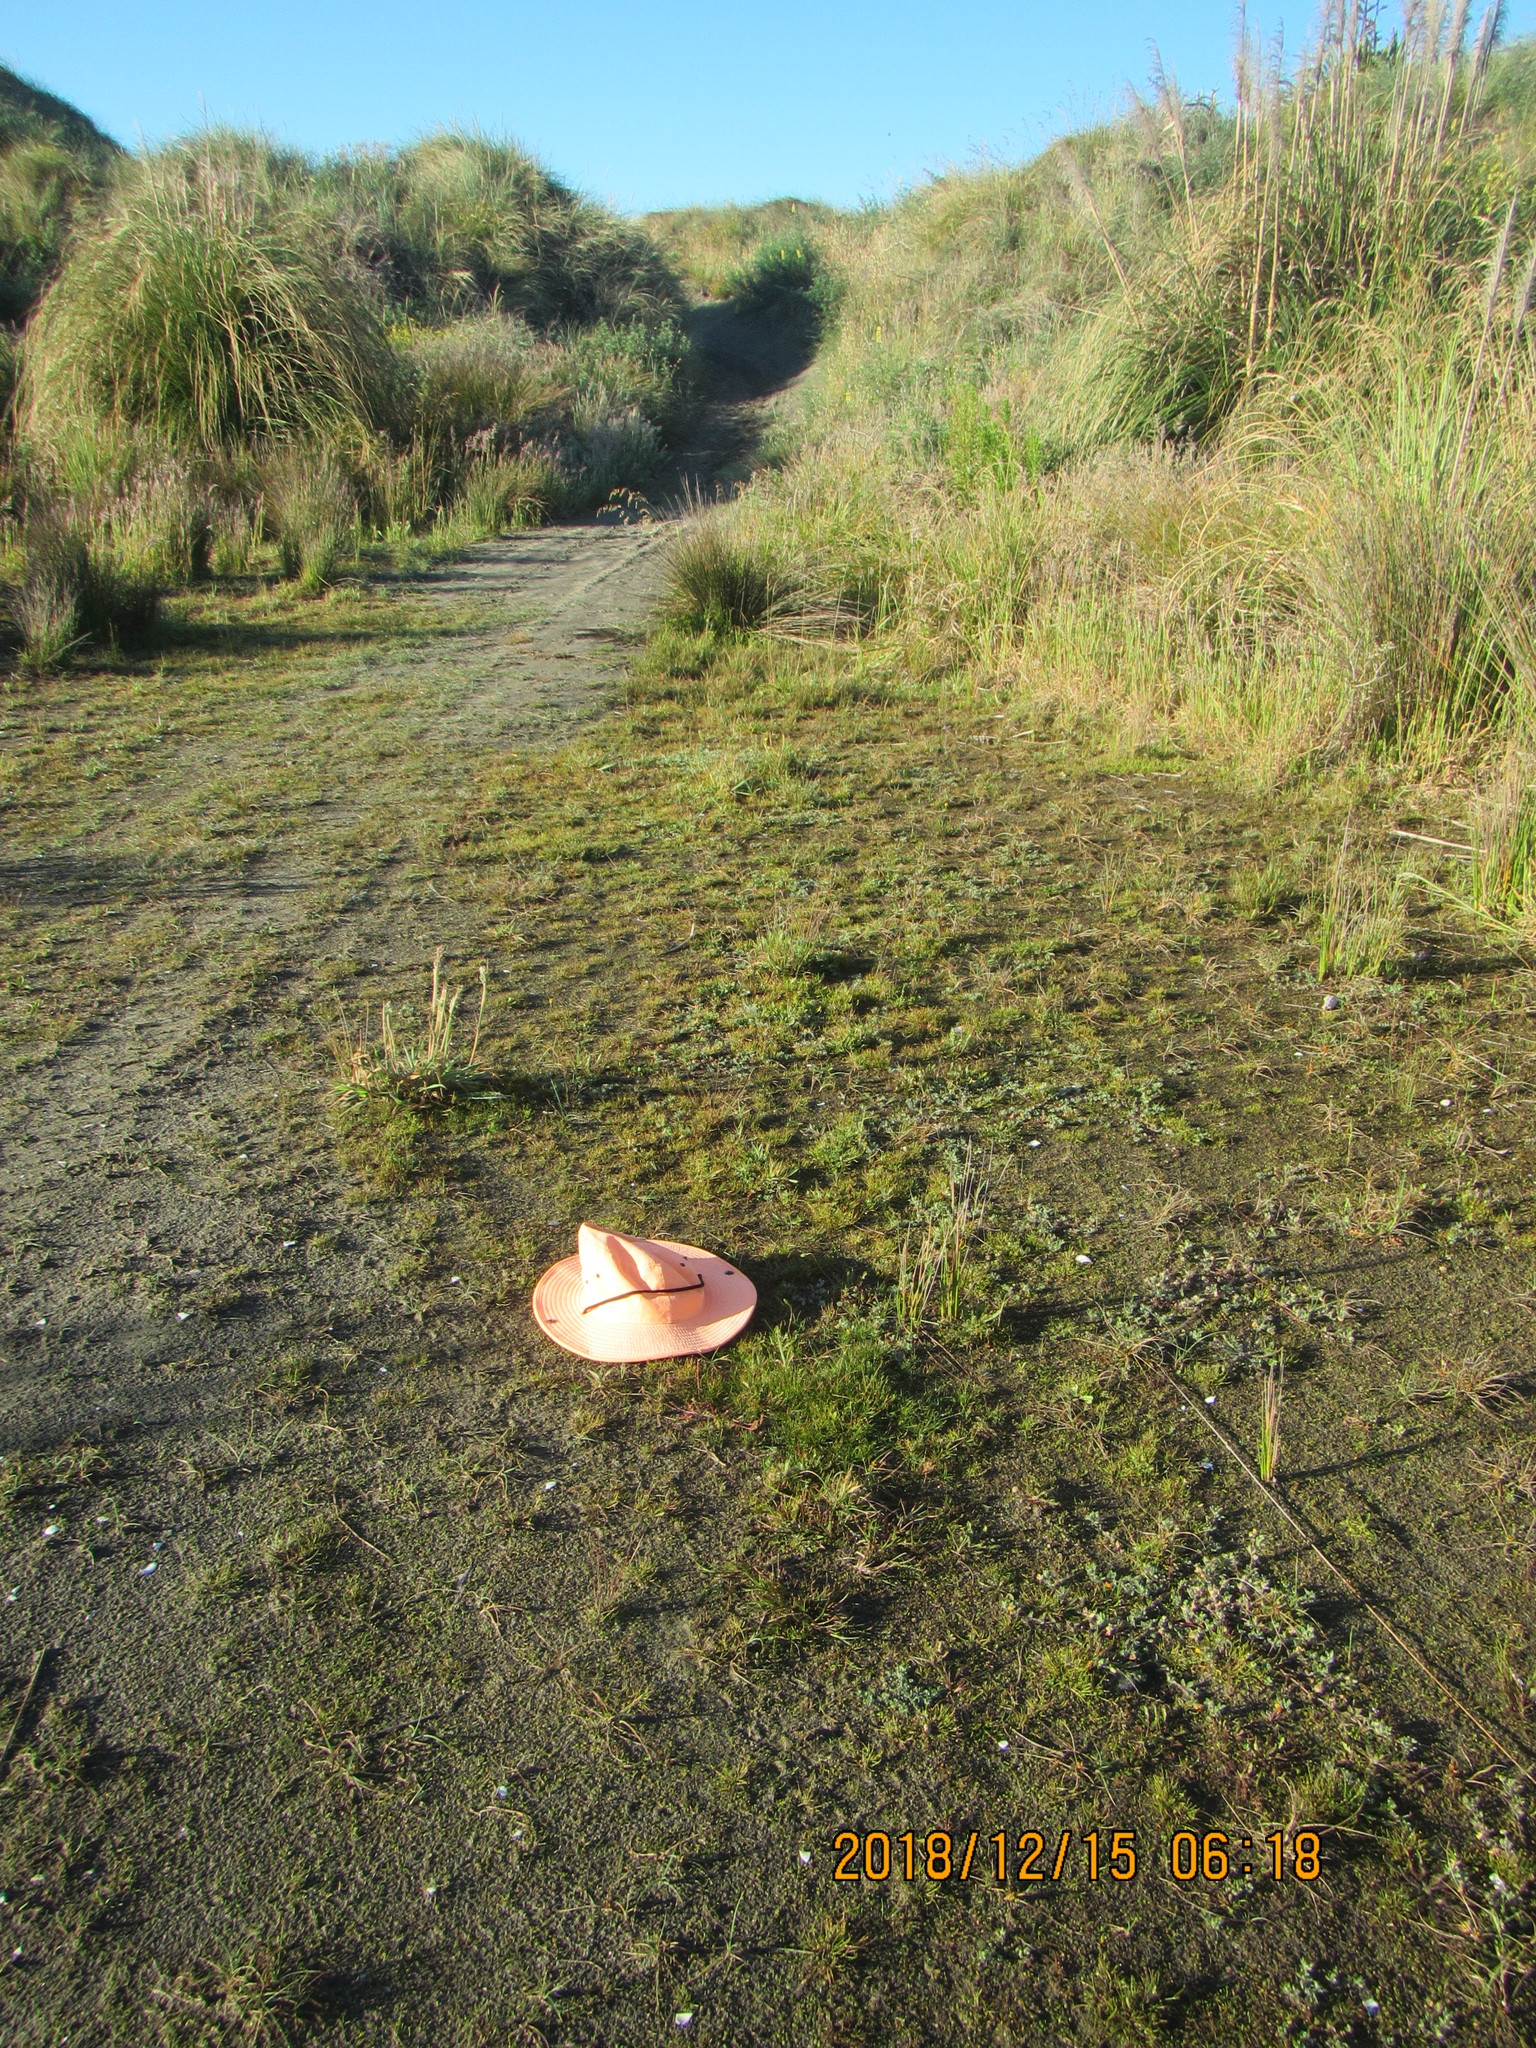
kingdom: Plantae
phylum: Tracheophyta
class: Liliopsida
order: Poales
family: Cyperaceae
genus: Isolepis
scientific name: Isolepis cernua
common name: Slender club-rush
